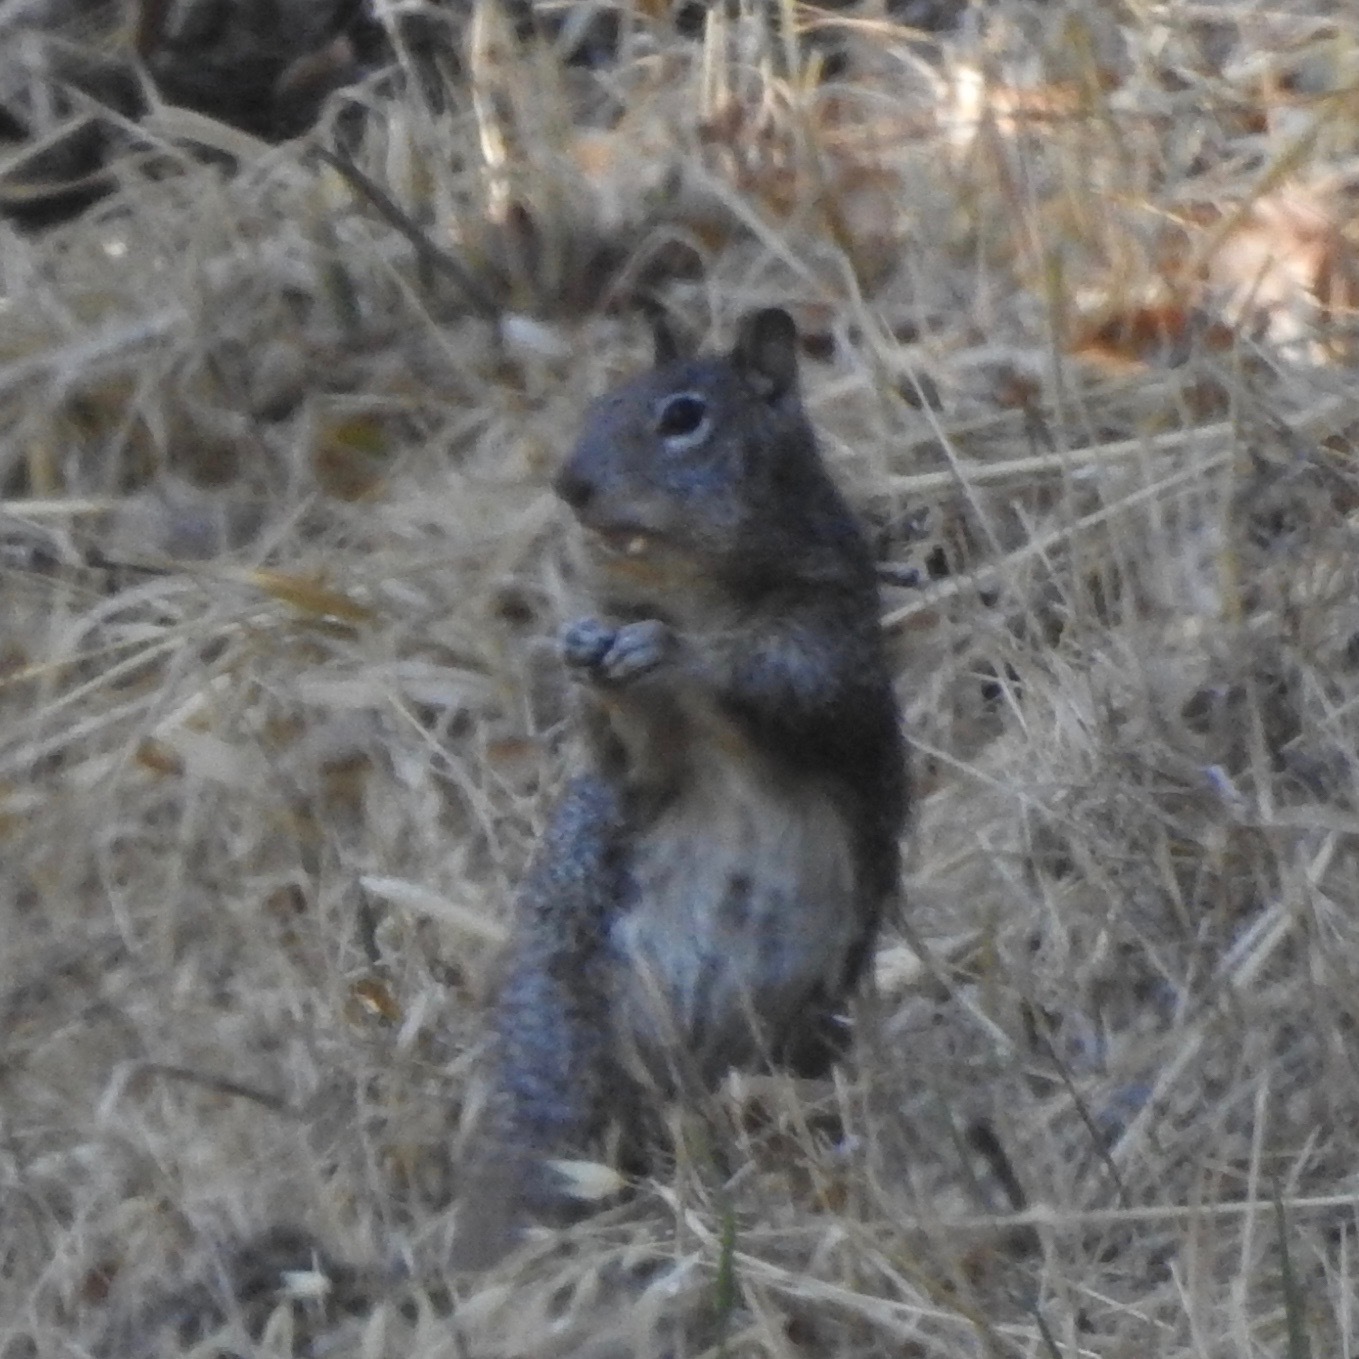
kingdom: Animalia
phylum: Chordata
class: Mammalia
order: Rodentia
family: Sciuridae
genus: Otospermophilus
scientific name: Otospermophilus beecheyi
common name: California ground squirrel
